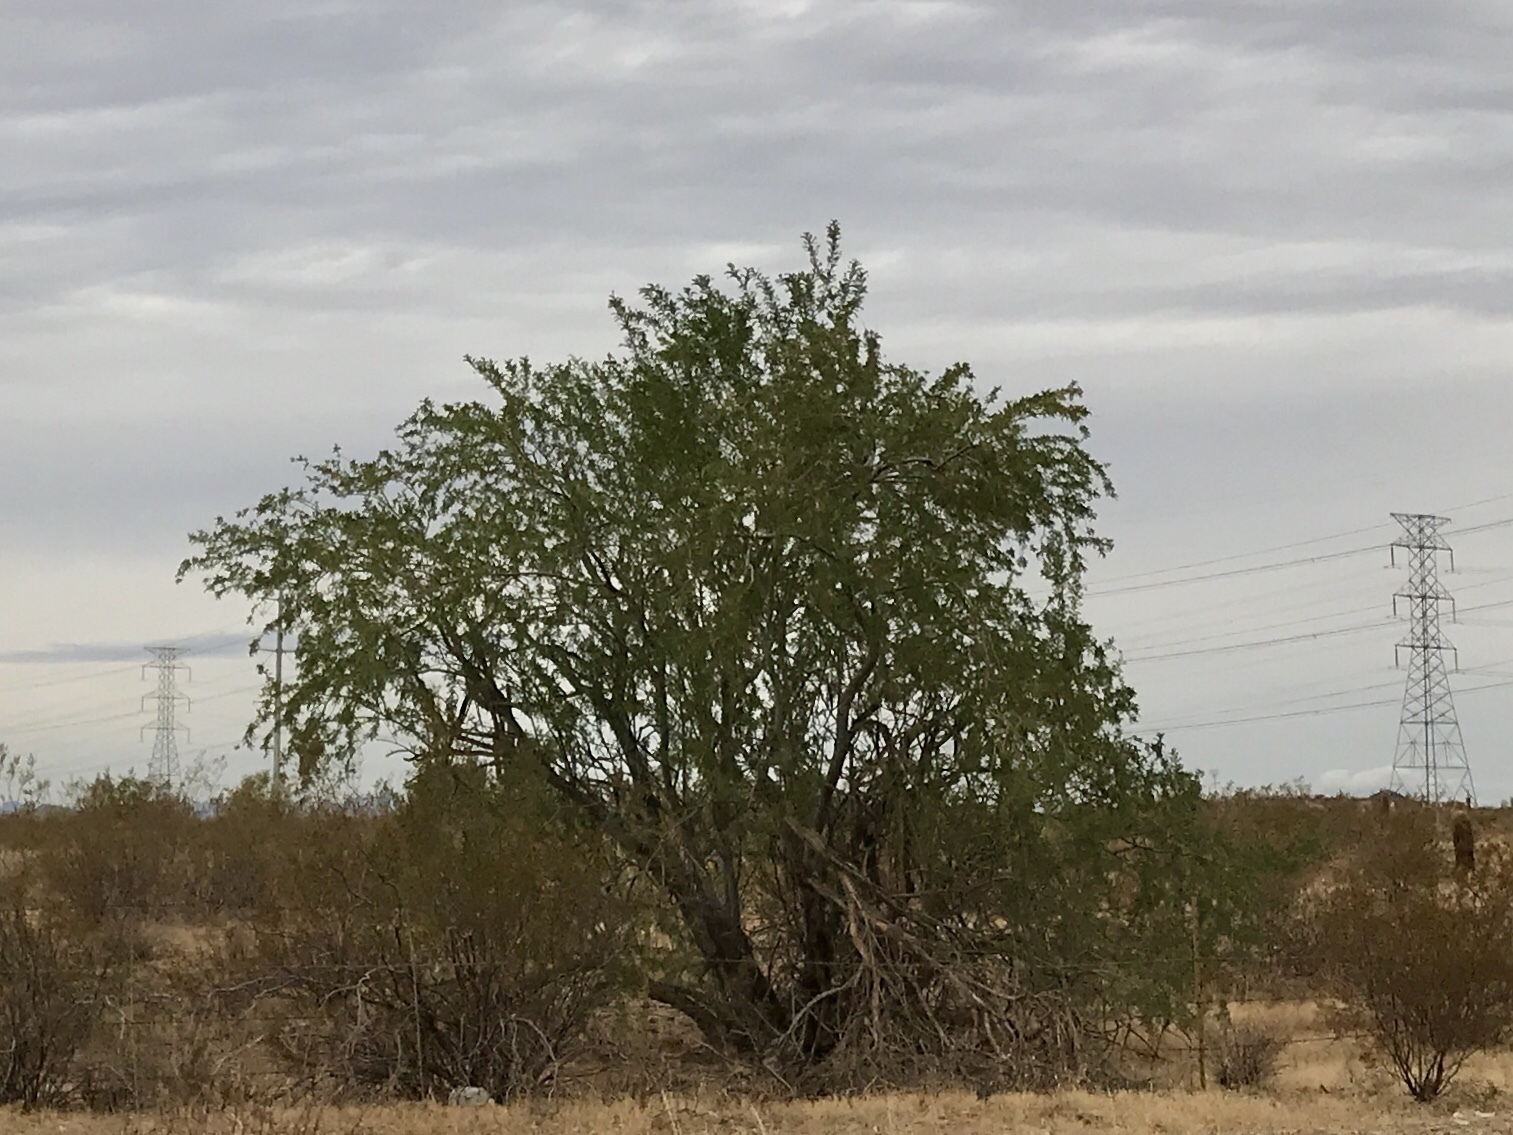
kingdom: Plantae
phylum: Tracheophyta
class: Magnoliopsida
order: Fabales
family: Fabaceae
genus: Olneya
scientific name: Olneya tesota
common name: Desert ironwood
